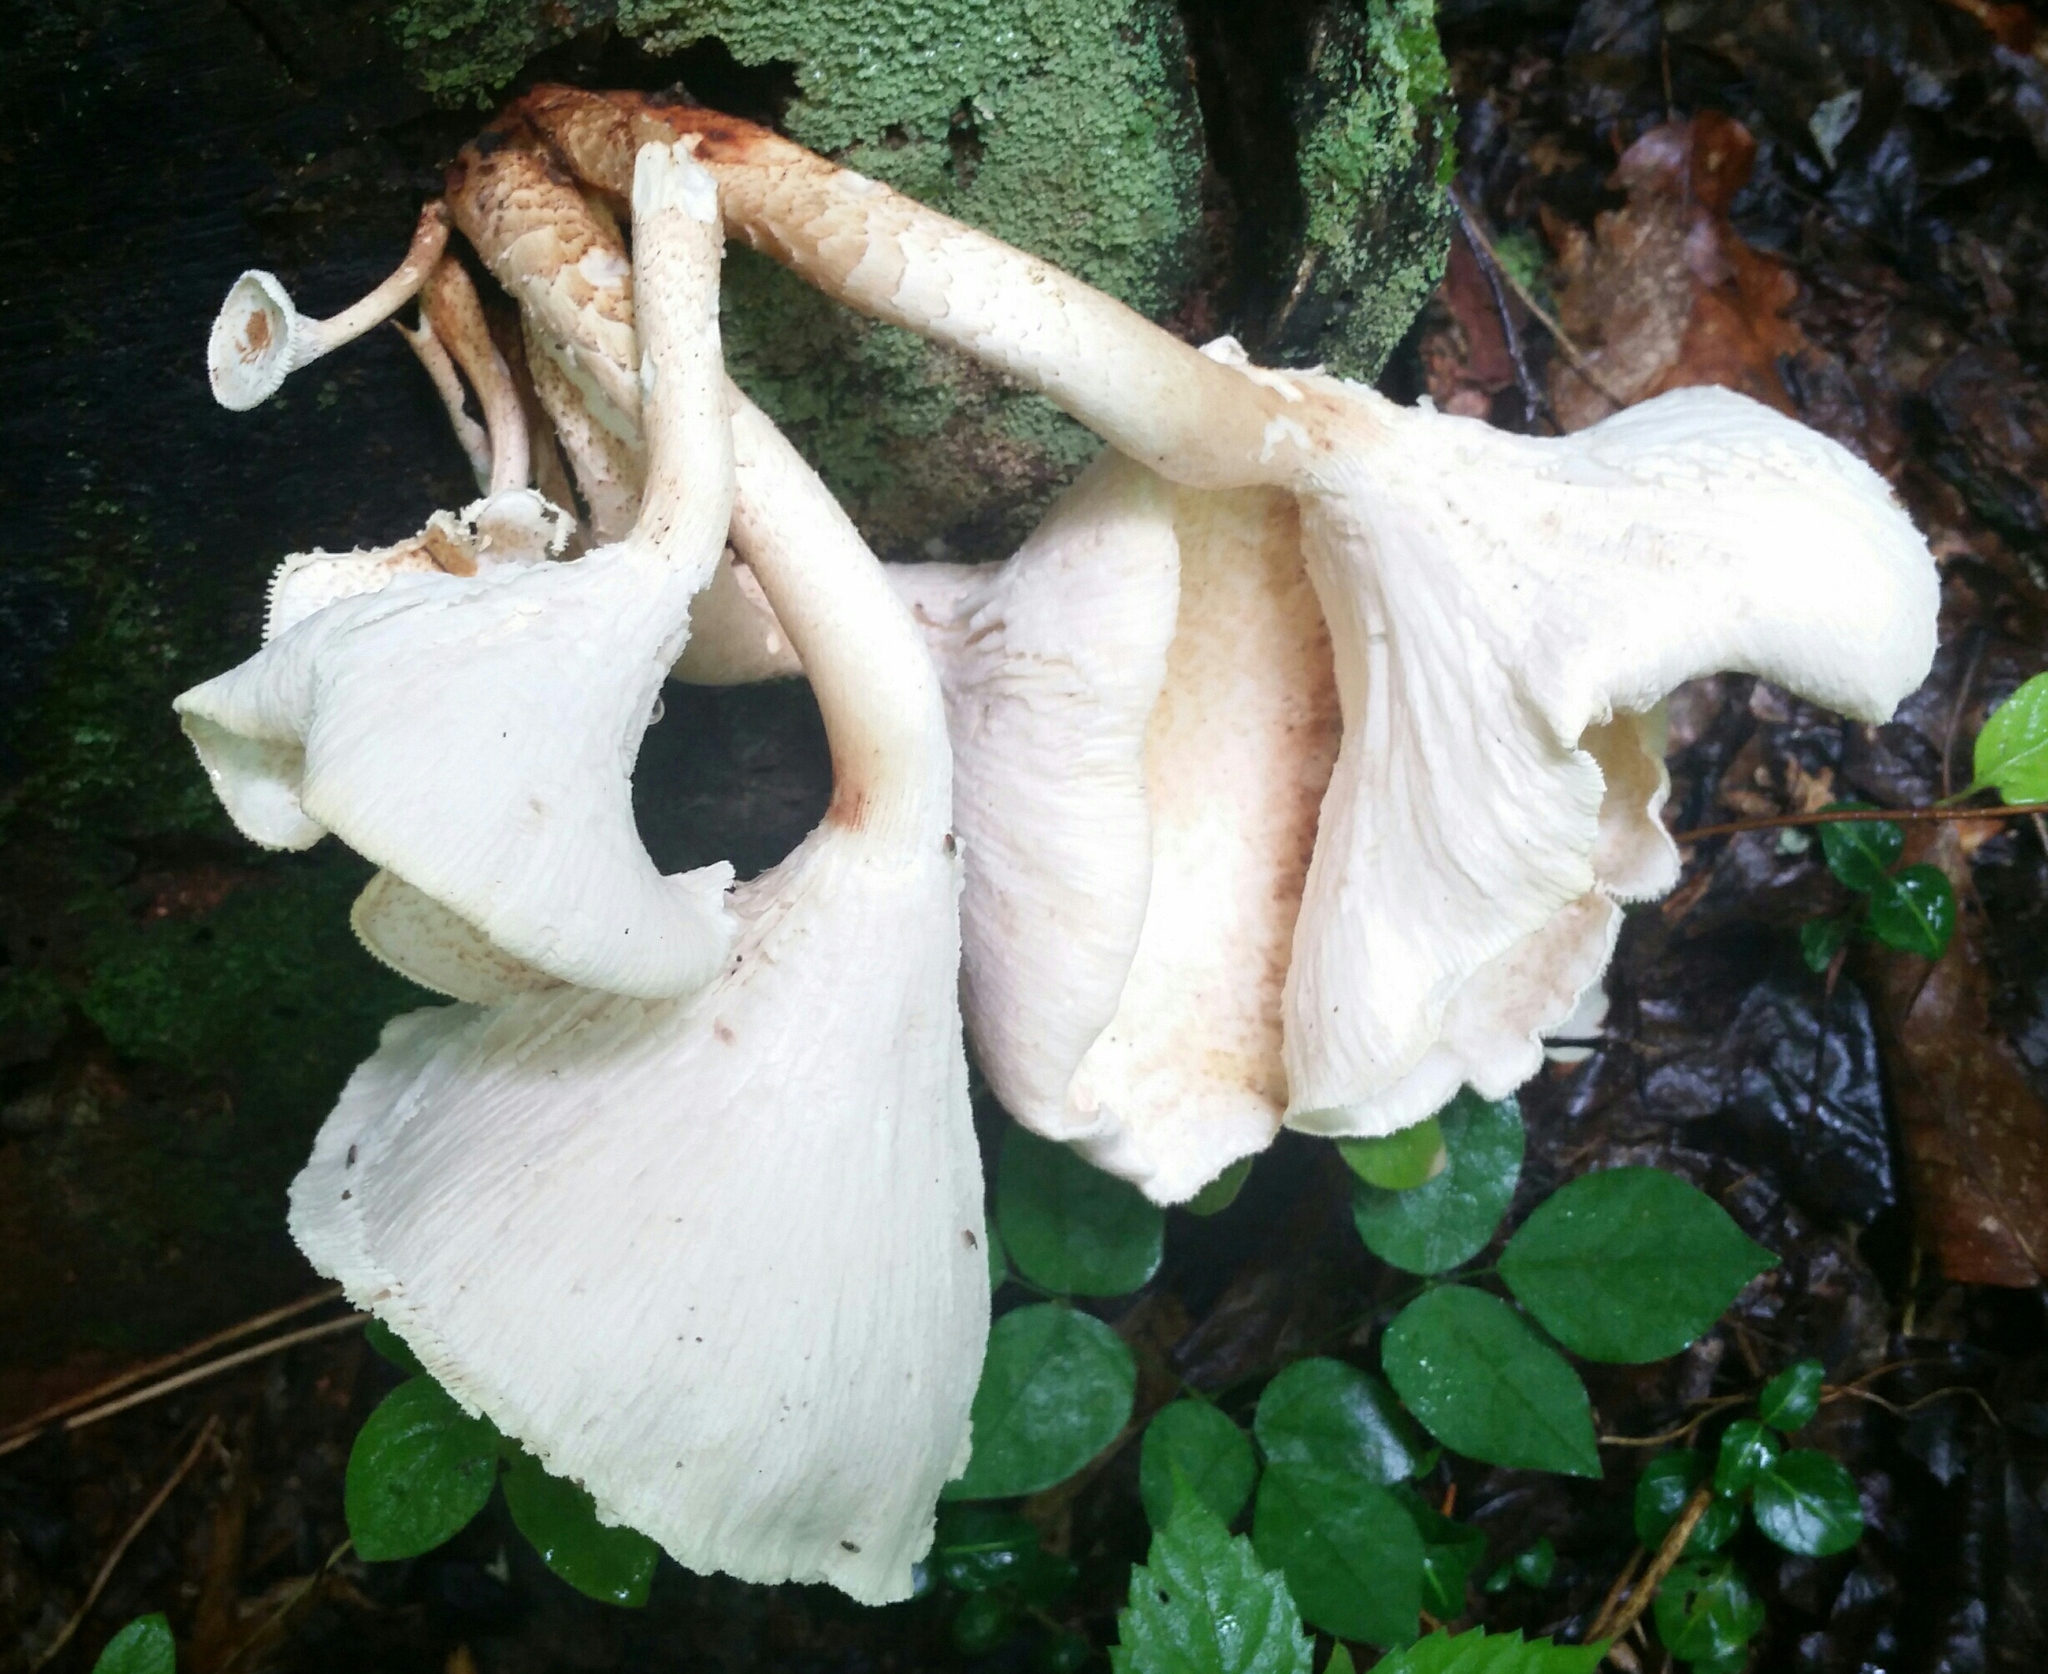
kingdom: Fungi
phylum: Basidiomycota
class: Agaricomycetes
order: Polyporales
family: Polyporaceae
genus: Lentinus
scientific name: Lentinus tigrinus
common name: Tiger sawgill
